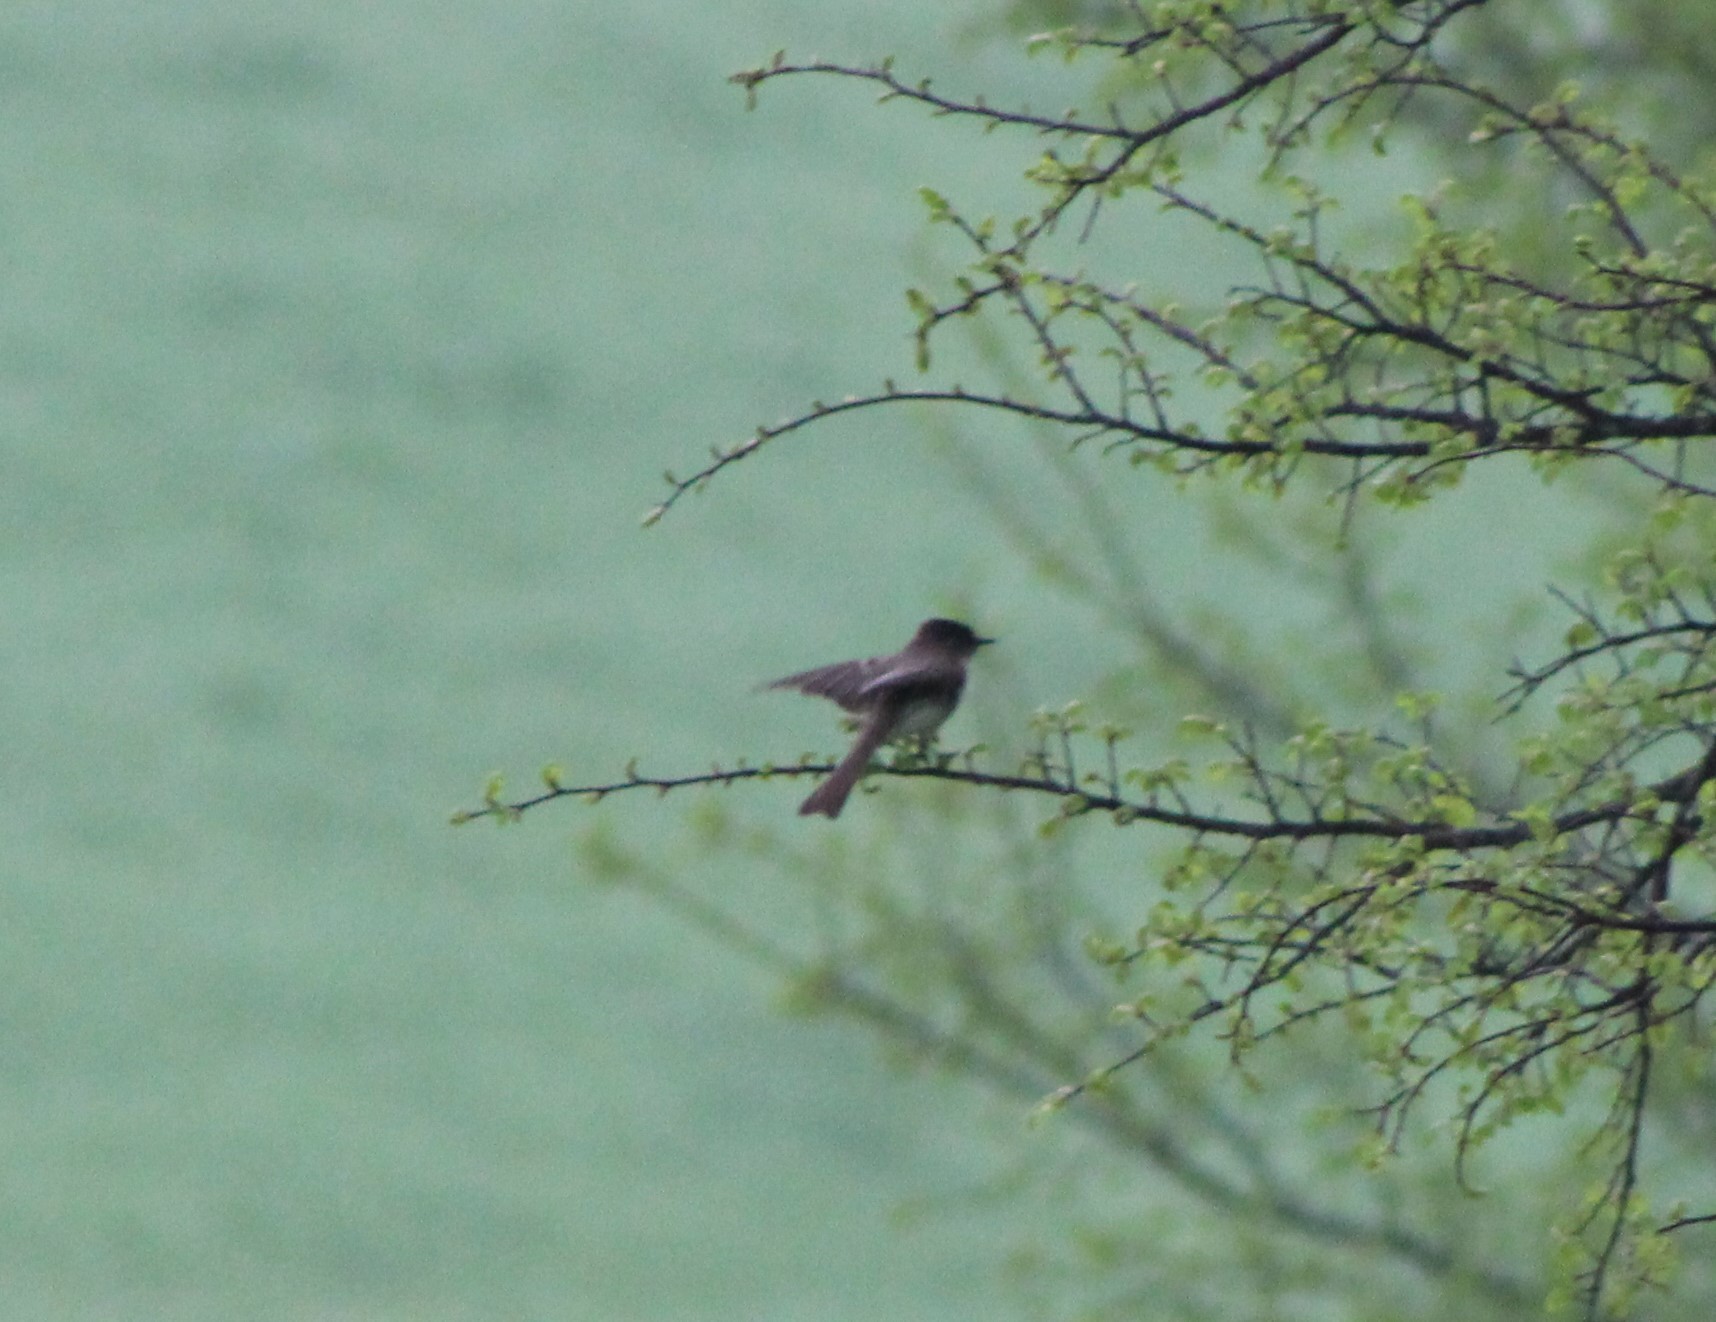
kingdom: Animalia
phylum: Chordata
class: Aves
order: Passeriformes
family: Tyrannidae
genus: Sayornis
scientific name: Sayornis phoebe
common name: Eastern phoebe
